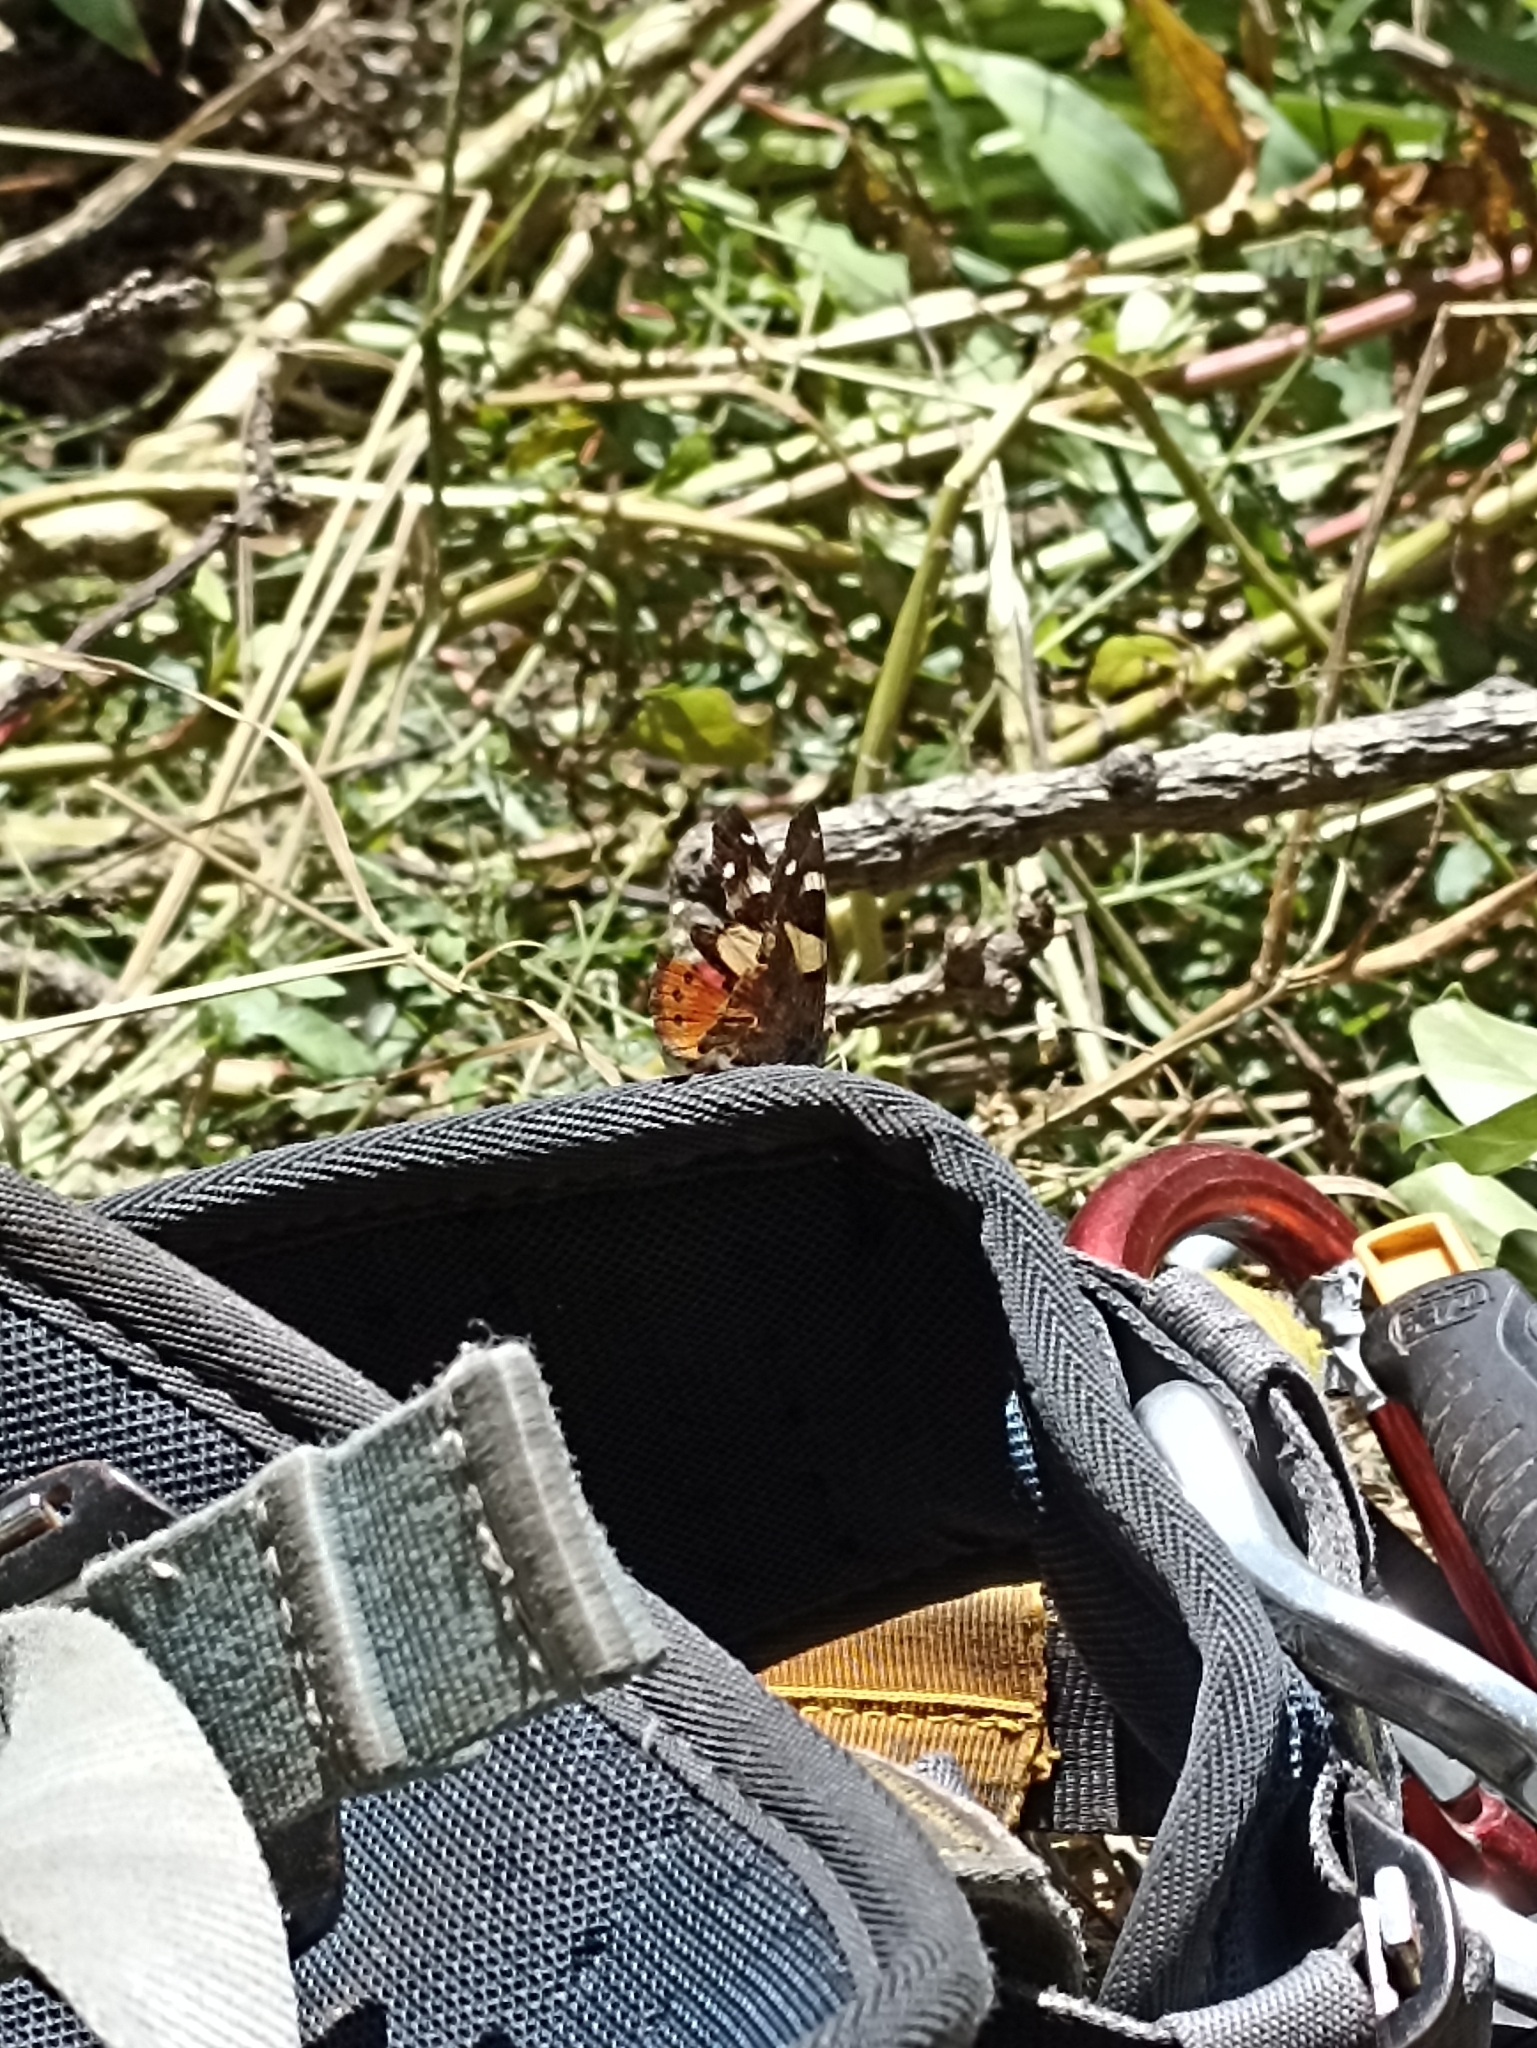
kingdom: Animalia
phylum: Arthropoda
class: Insecta
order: Lepidoptera
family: Nymphalidae
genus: Vanessa
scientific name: Vanessa itea
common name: Yellow admiral
